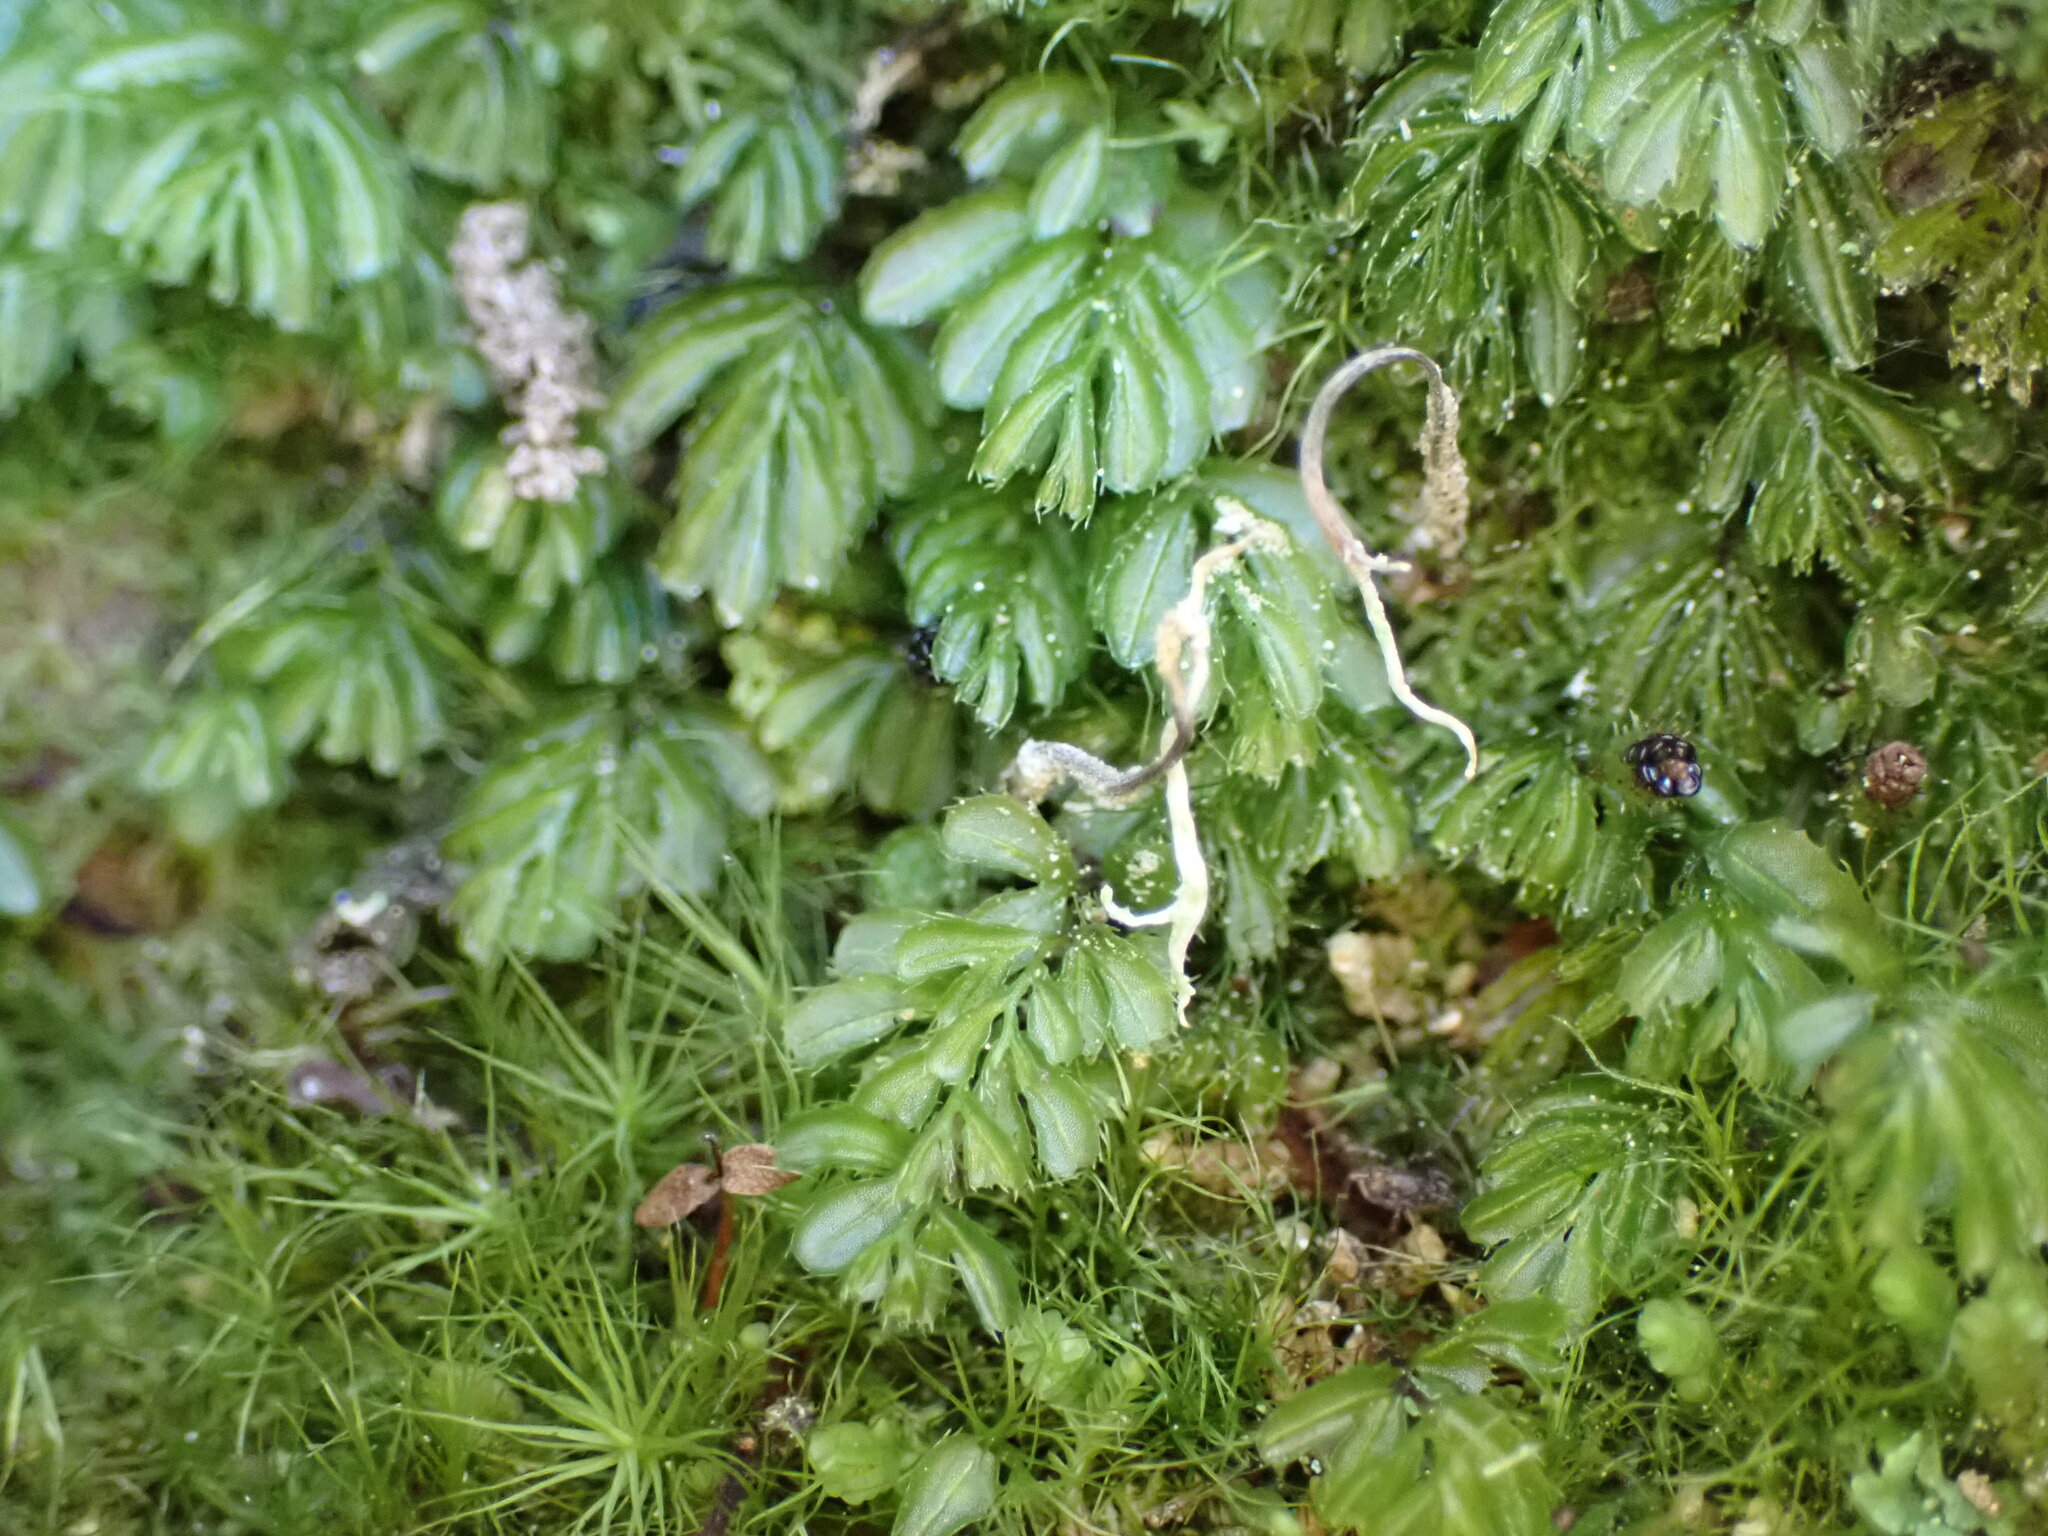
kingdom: Plantae
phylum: Tracheophyta
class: Polypodiopsida
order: Hymenophyllales
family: Hymenophyllaceae
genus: Hymenophyllum
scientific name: Hymenophyllum minimum
